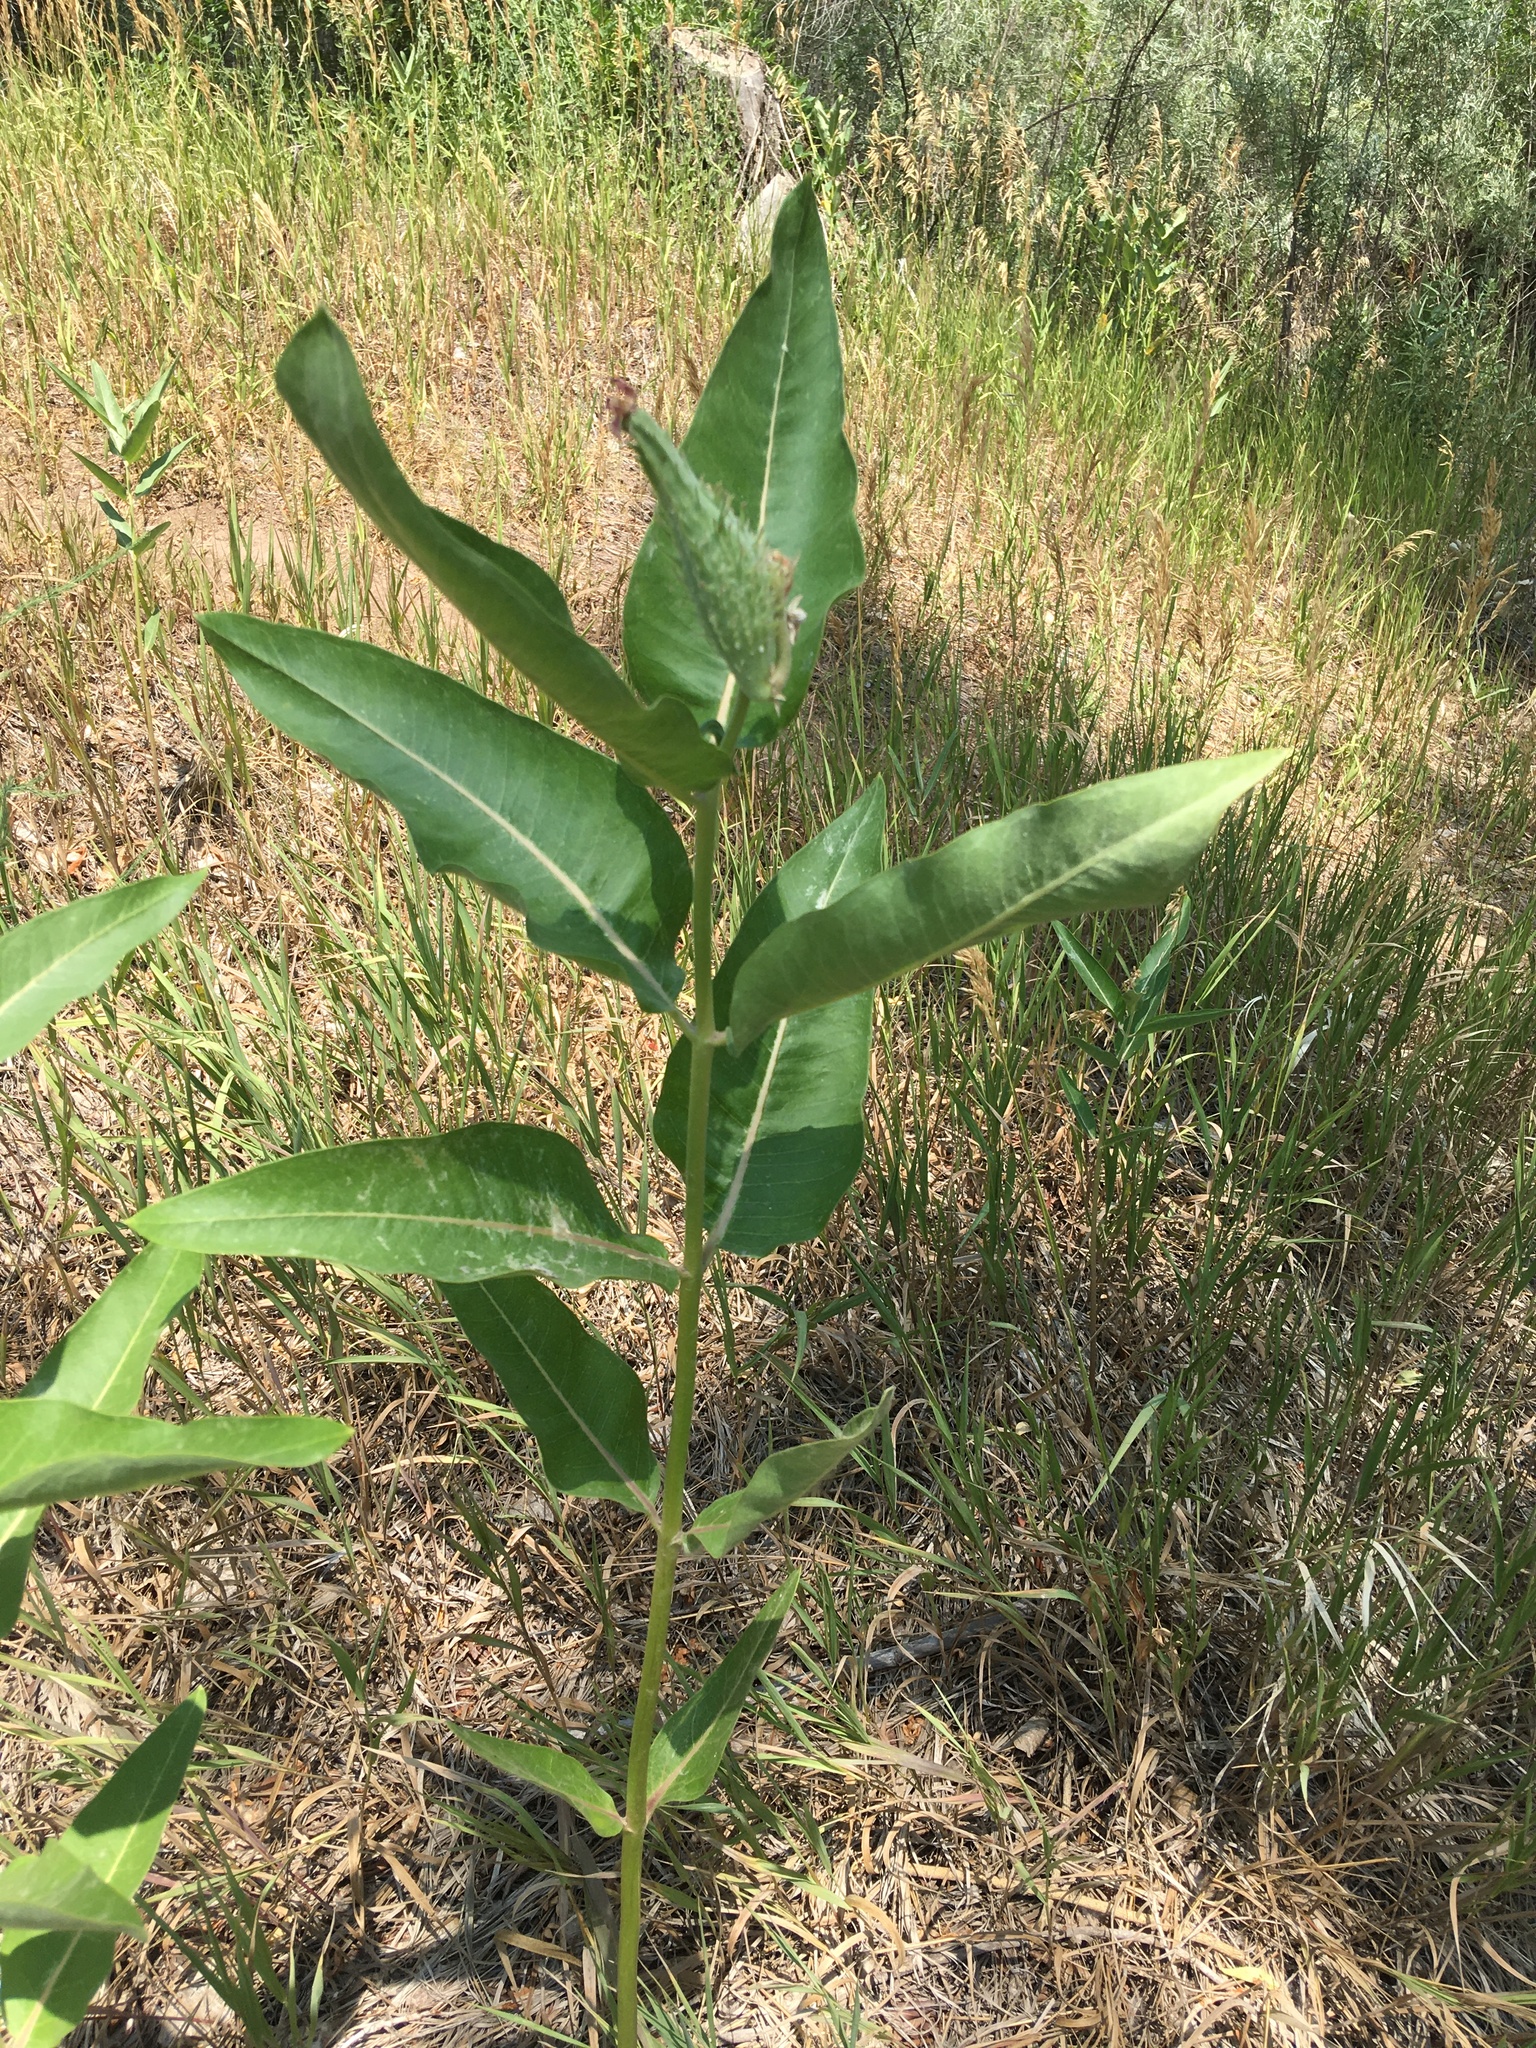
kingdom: Plantae
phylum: Tracheophyta
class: Magnoliopsida
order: Gentianales
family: Apocynaceae
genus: Asclepias
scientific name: Asclepias speciosa
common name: Showy milkweed
